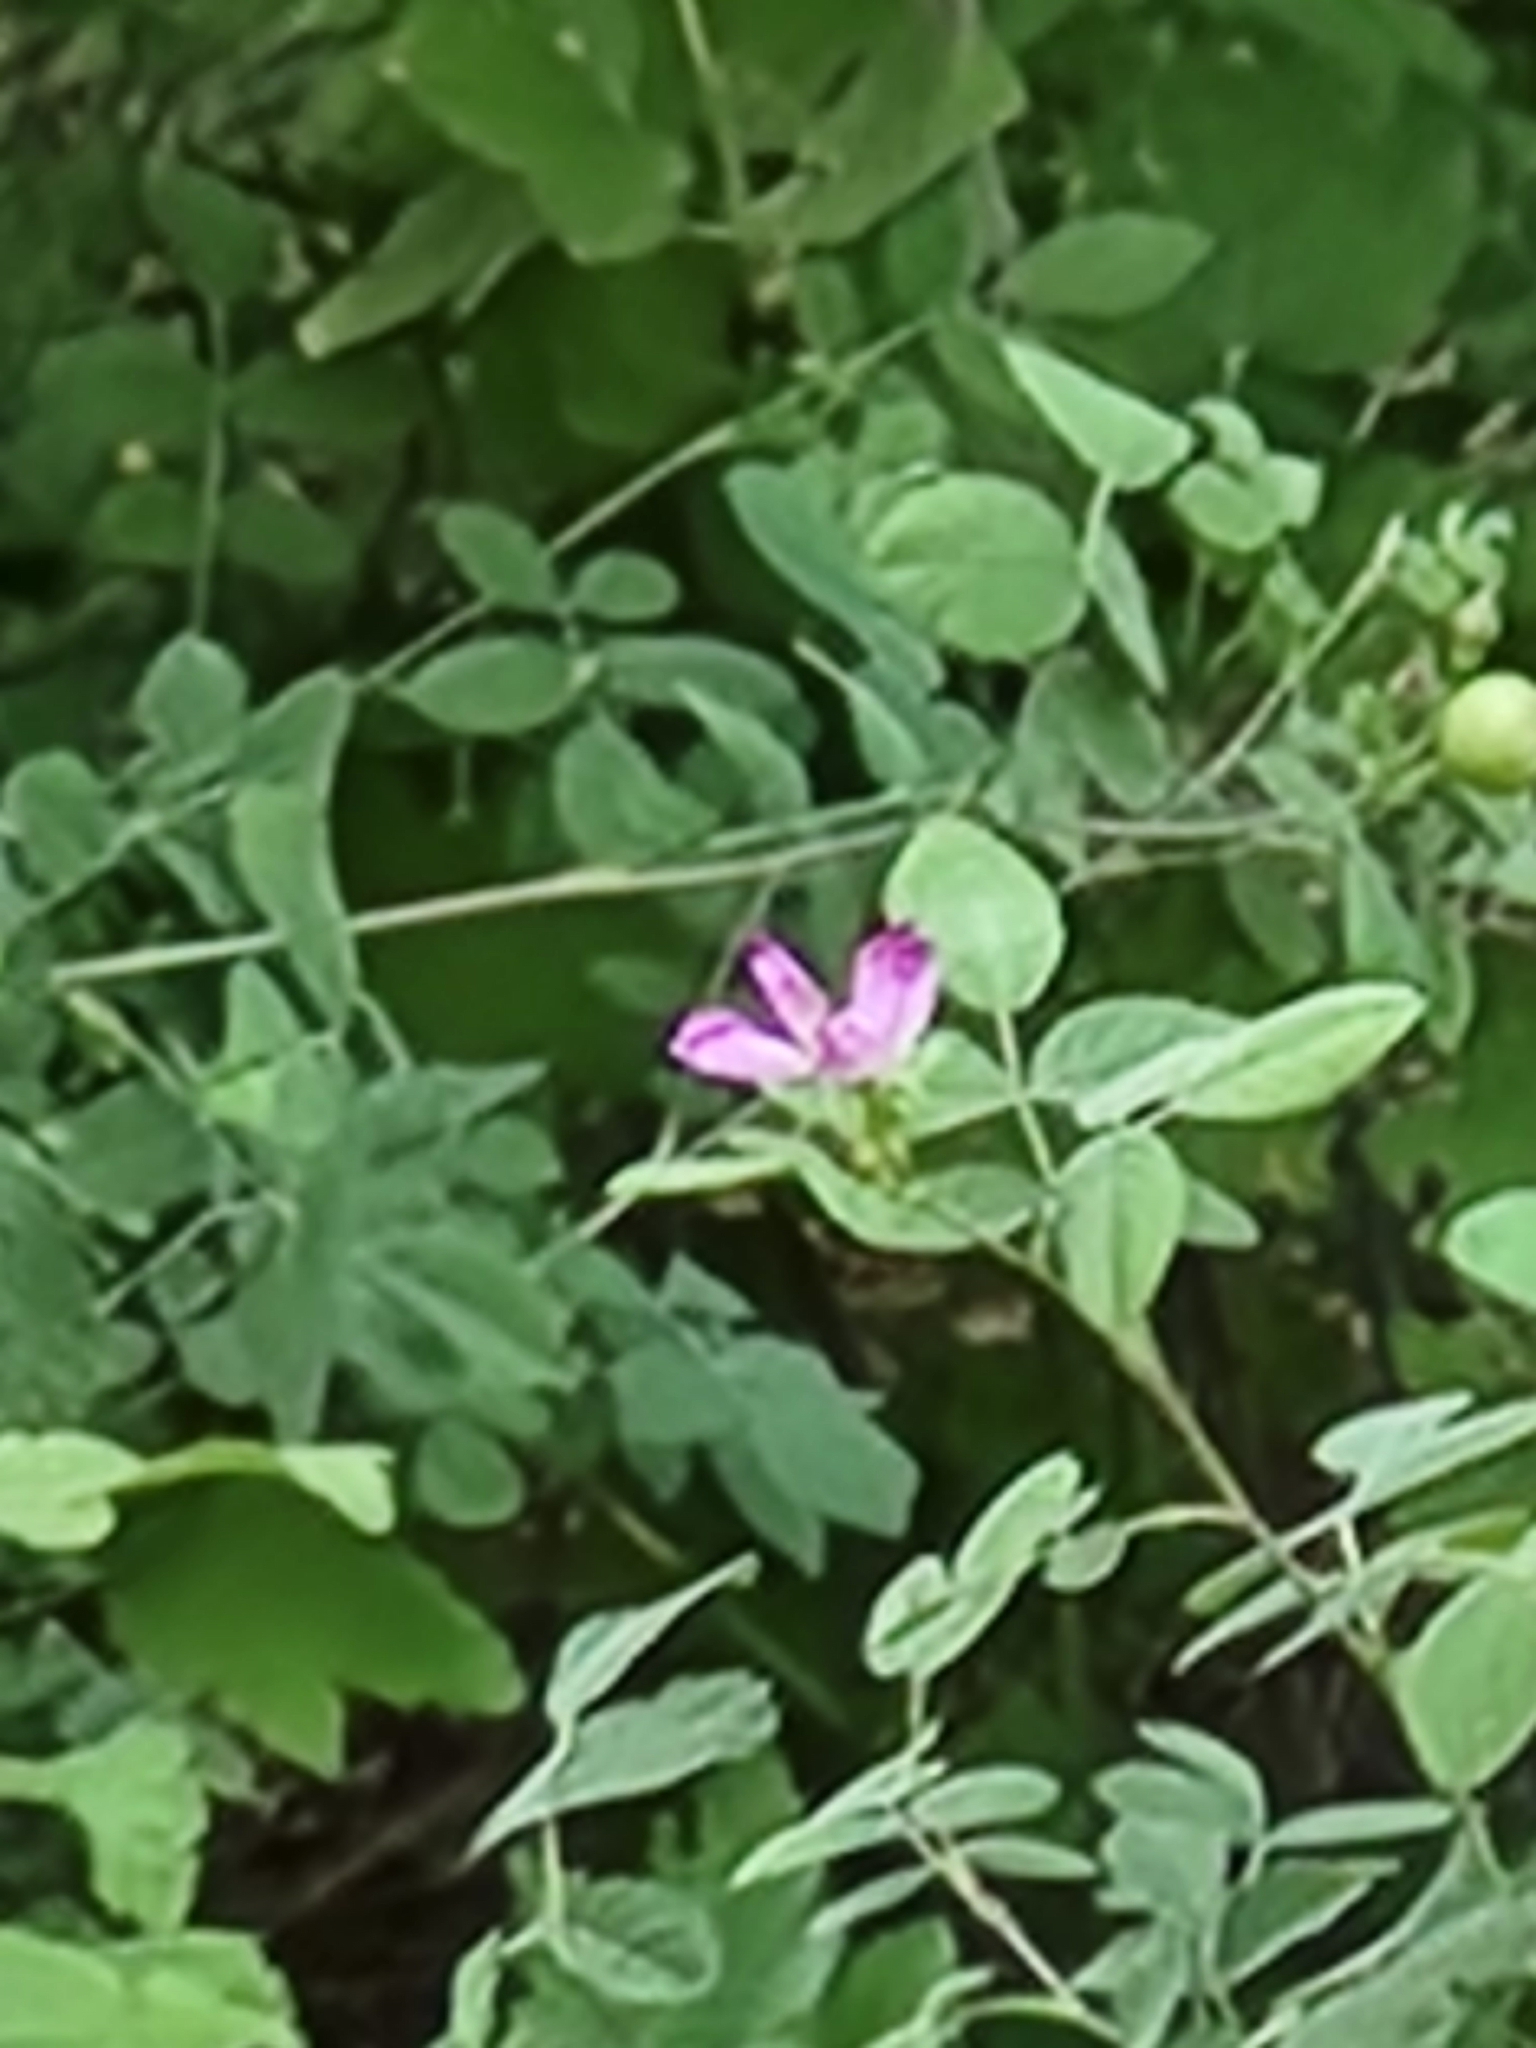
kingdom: Plantae
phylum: Tracheophyta
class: Magnoliopsida
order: Rosales
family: Rosaceae
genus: Rosa
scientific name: Rosa californica
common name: California rose
